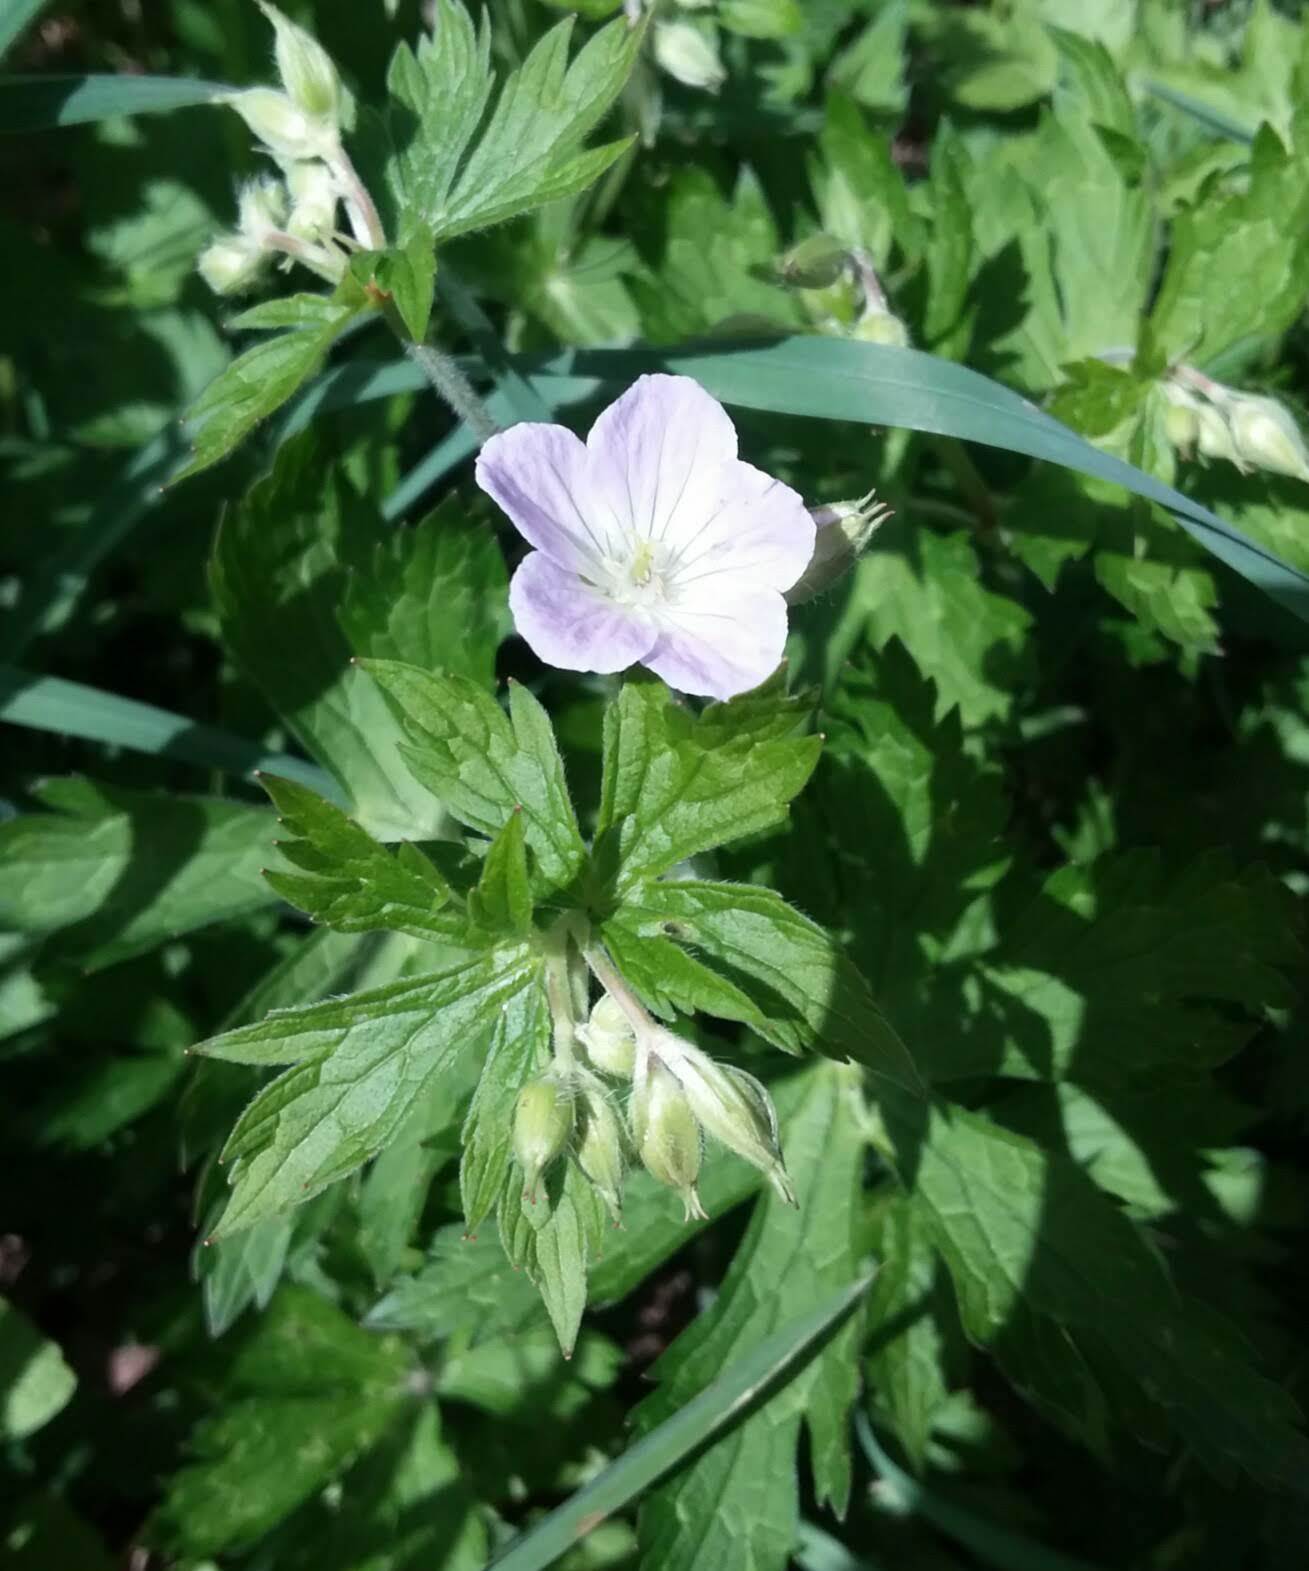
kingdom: Plantae
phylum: Tracheophyta
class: Magnoliopsida
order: Geraniales
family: Geraniaceae
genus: Geranium
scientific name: Geranium maculatum
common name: Spotted geranium
